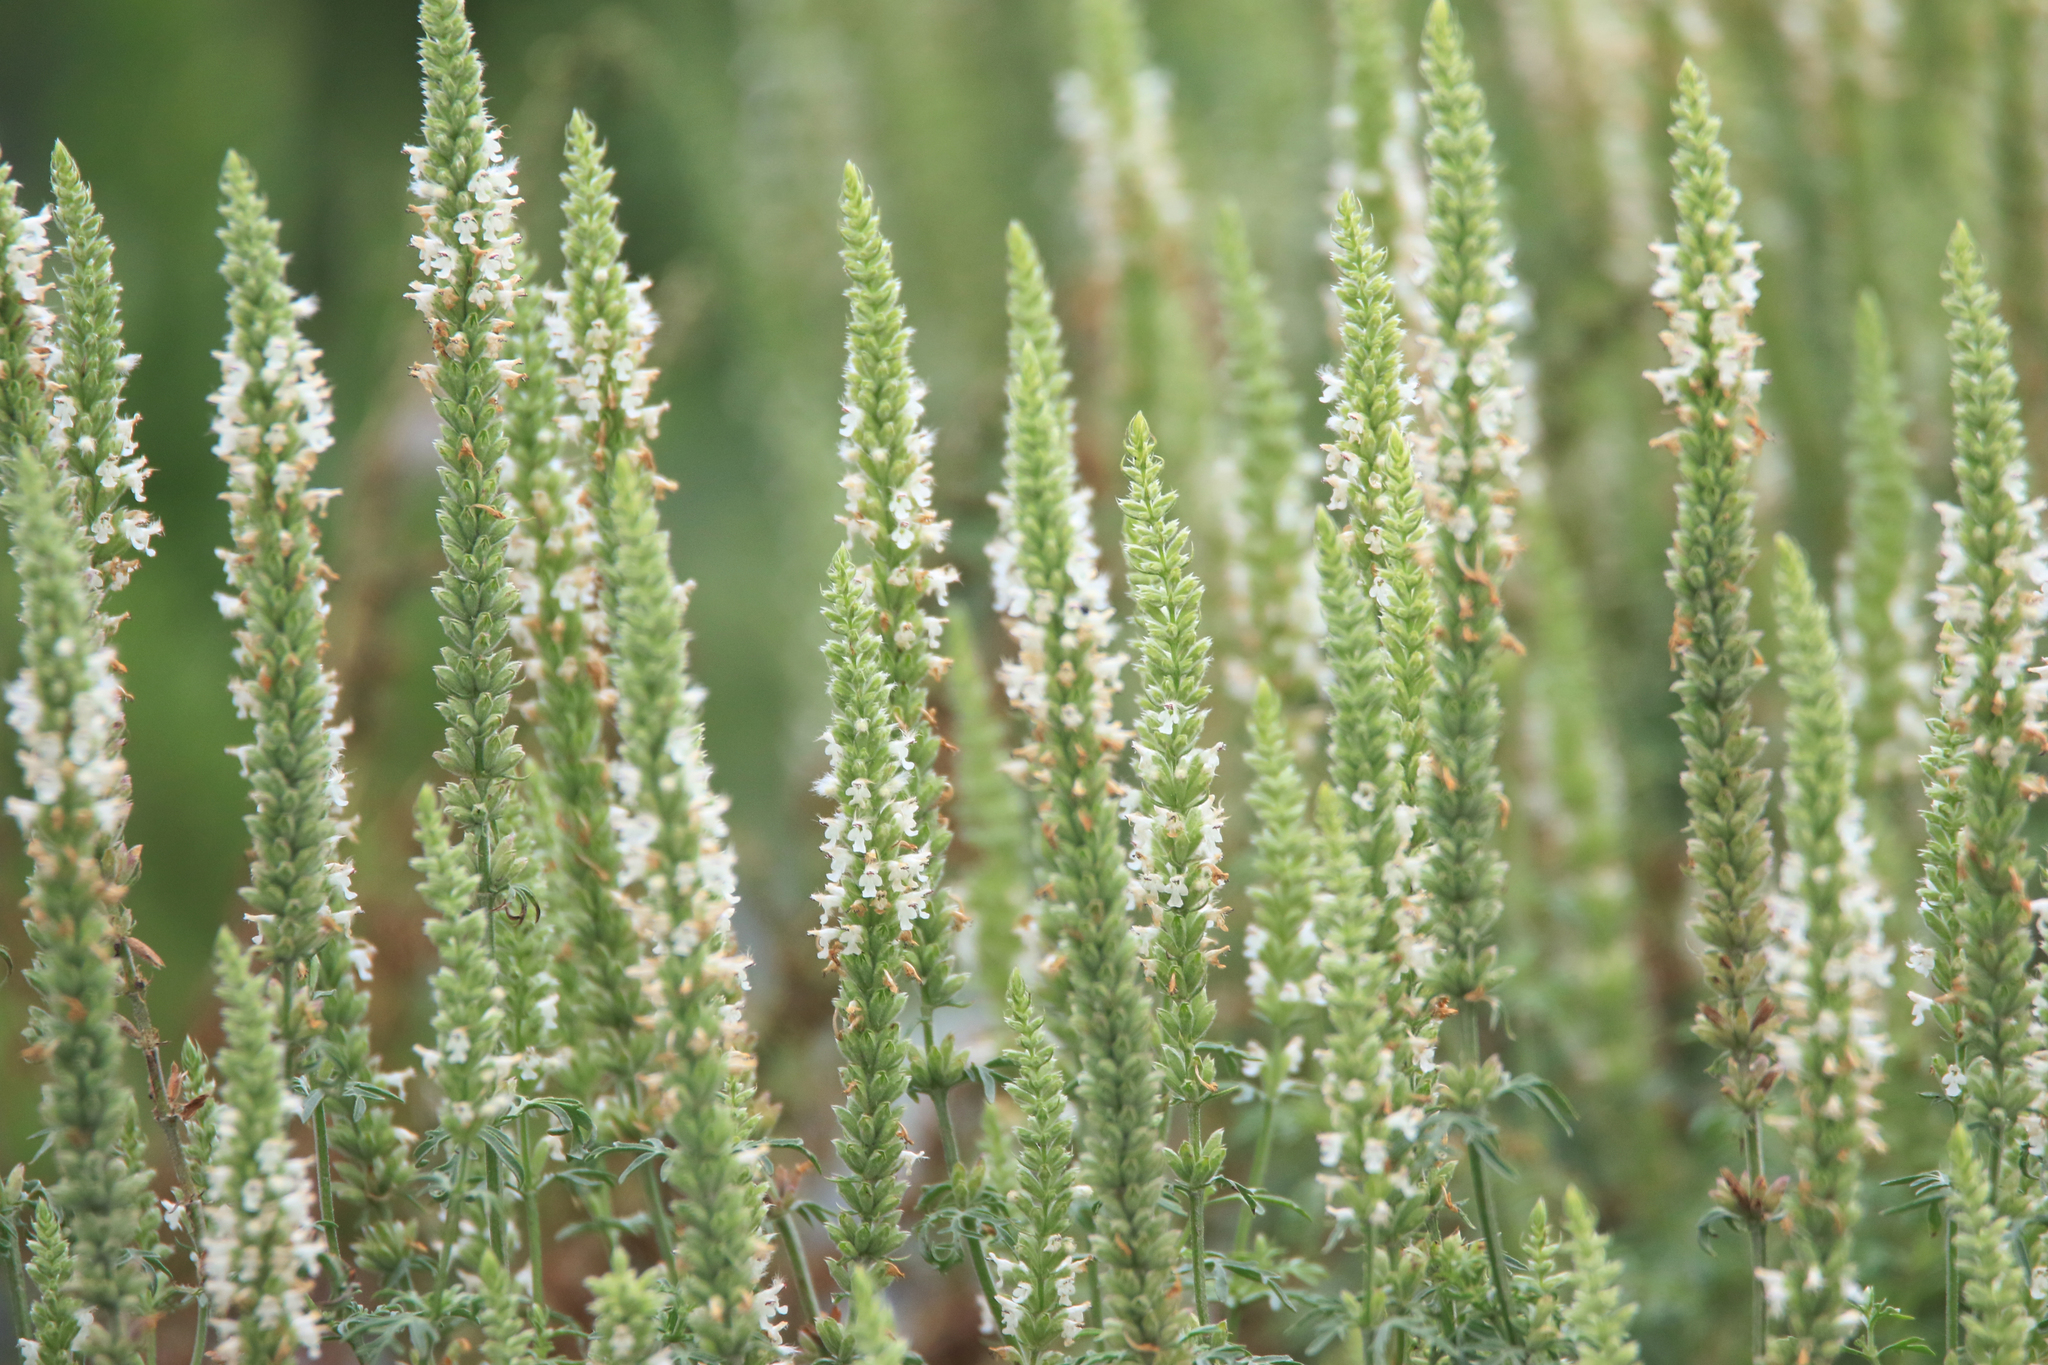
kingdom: Plantae
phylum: Tracheophyta
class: Magnoliopsida
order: Lamiales
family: Lamiaceae
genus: Nepeta
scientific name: Nepeta annua
